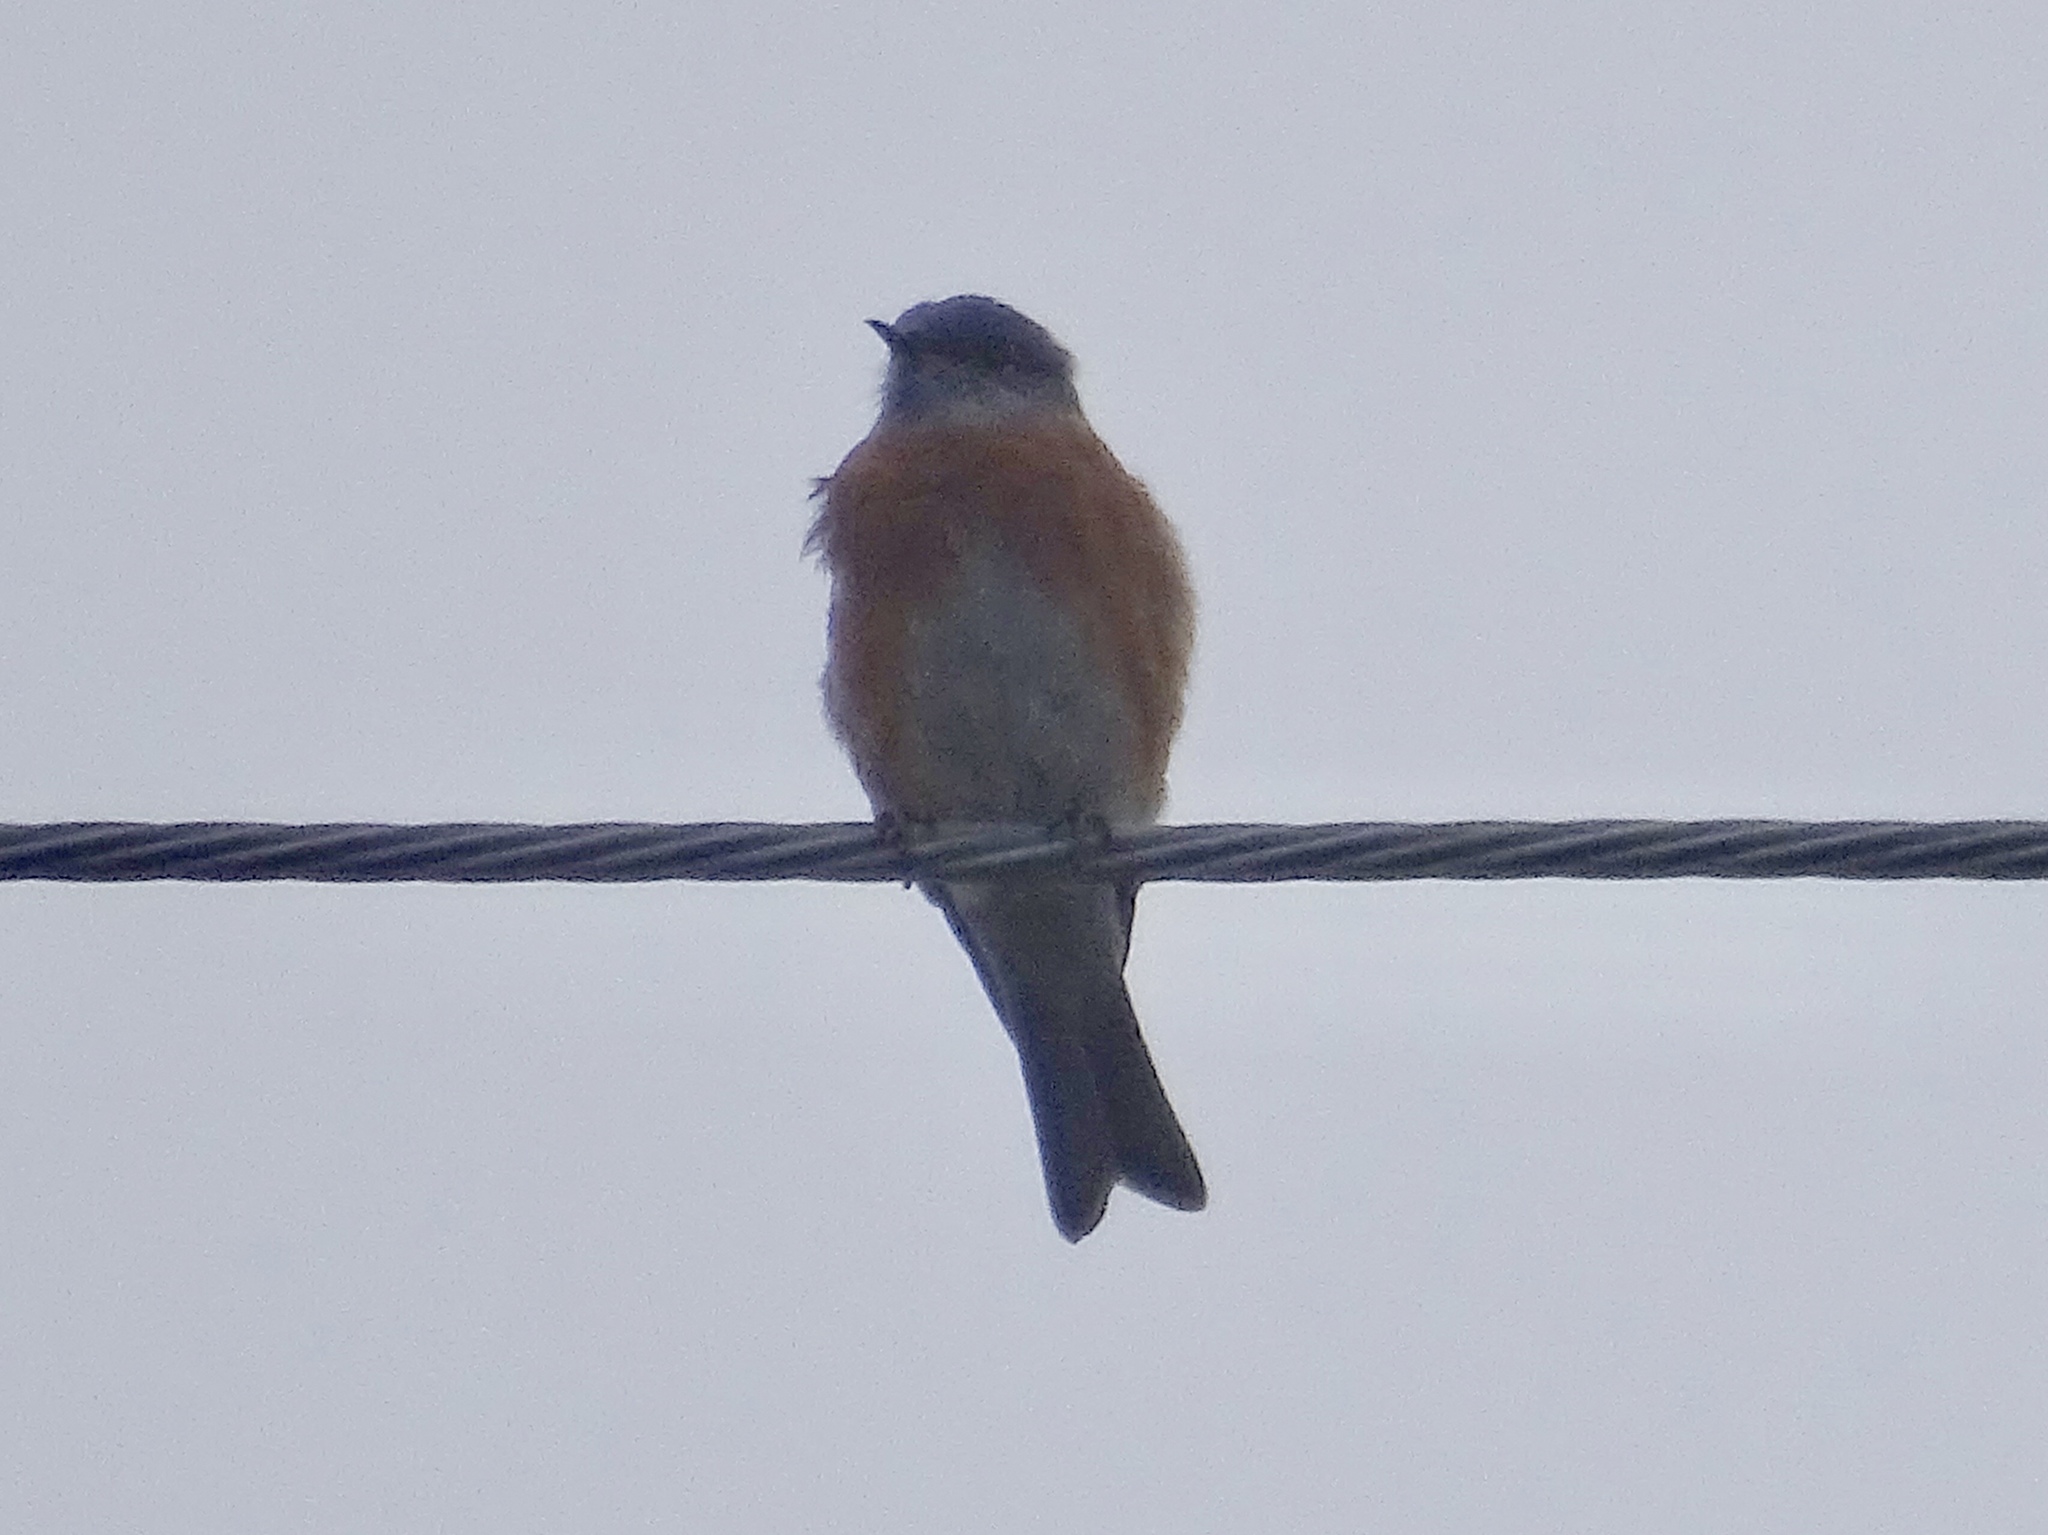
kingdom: Animalia
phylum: Chordata
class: Aves
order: Passeriformes
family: Turdidae
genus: Sialia
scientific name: Sialia mexicana
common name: Western bluebird
